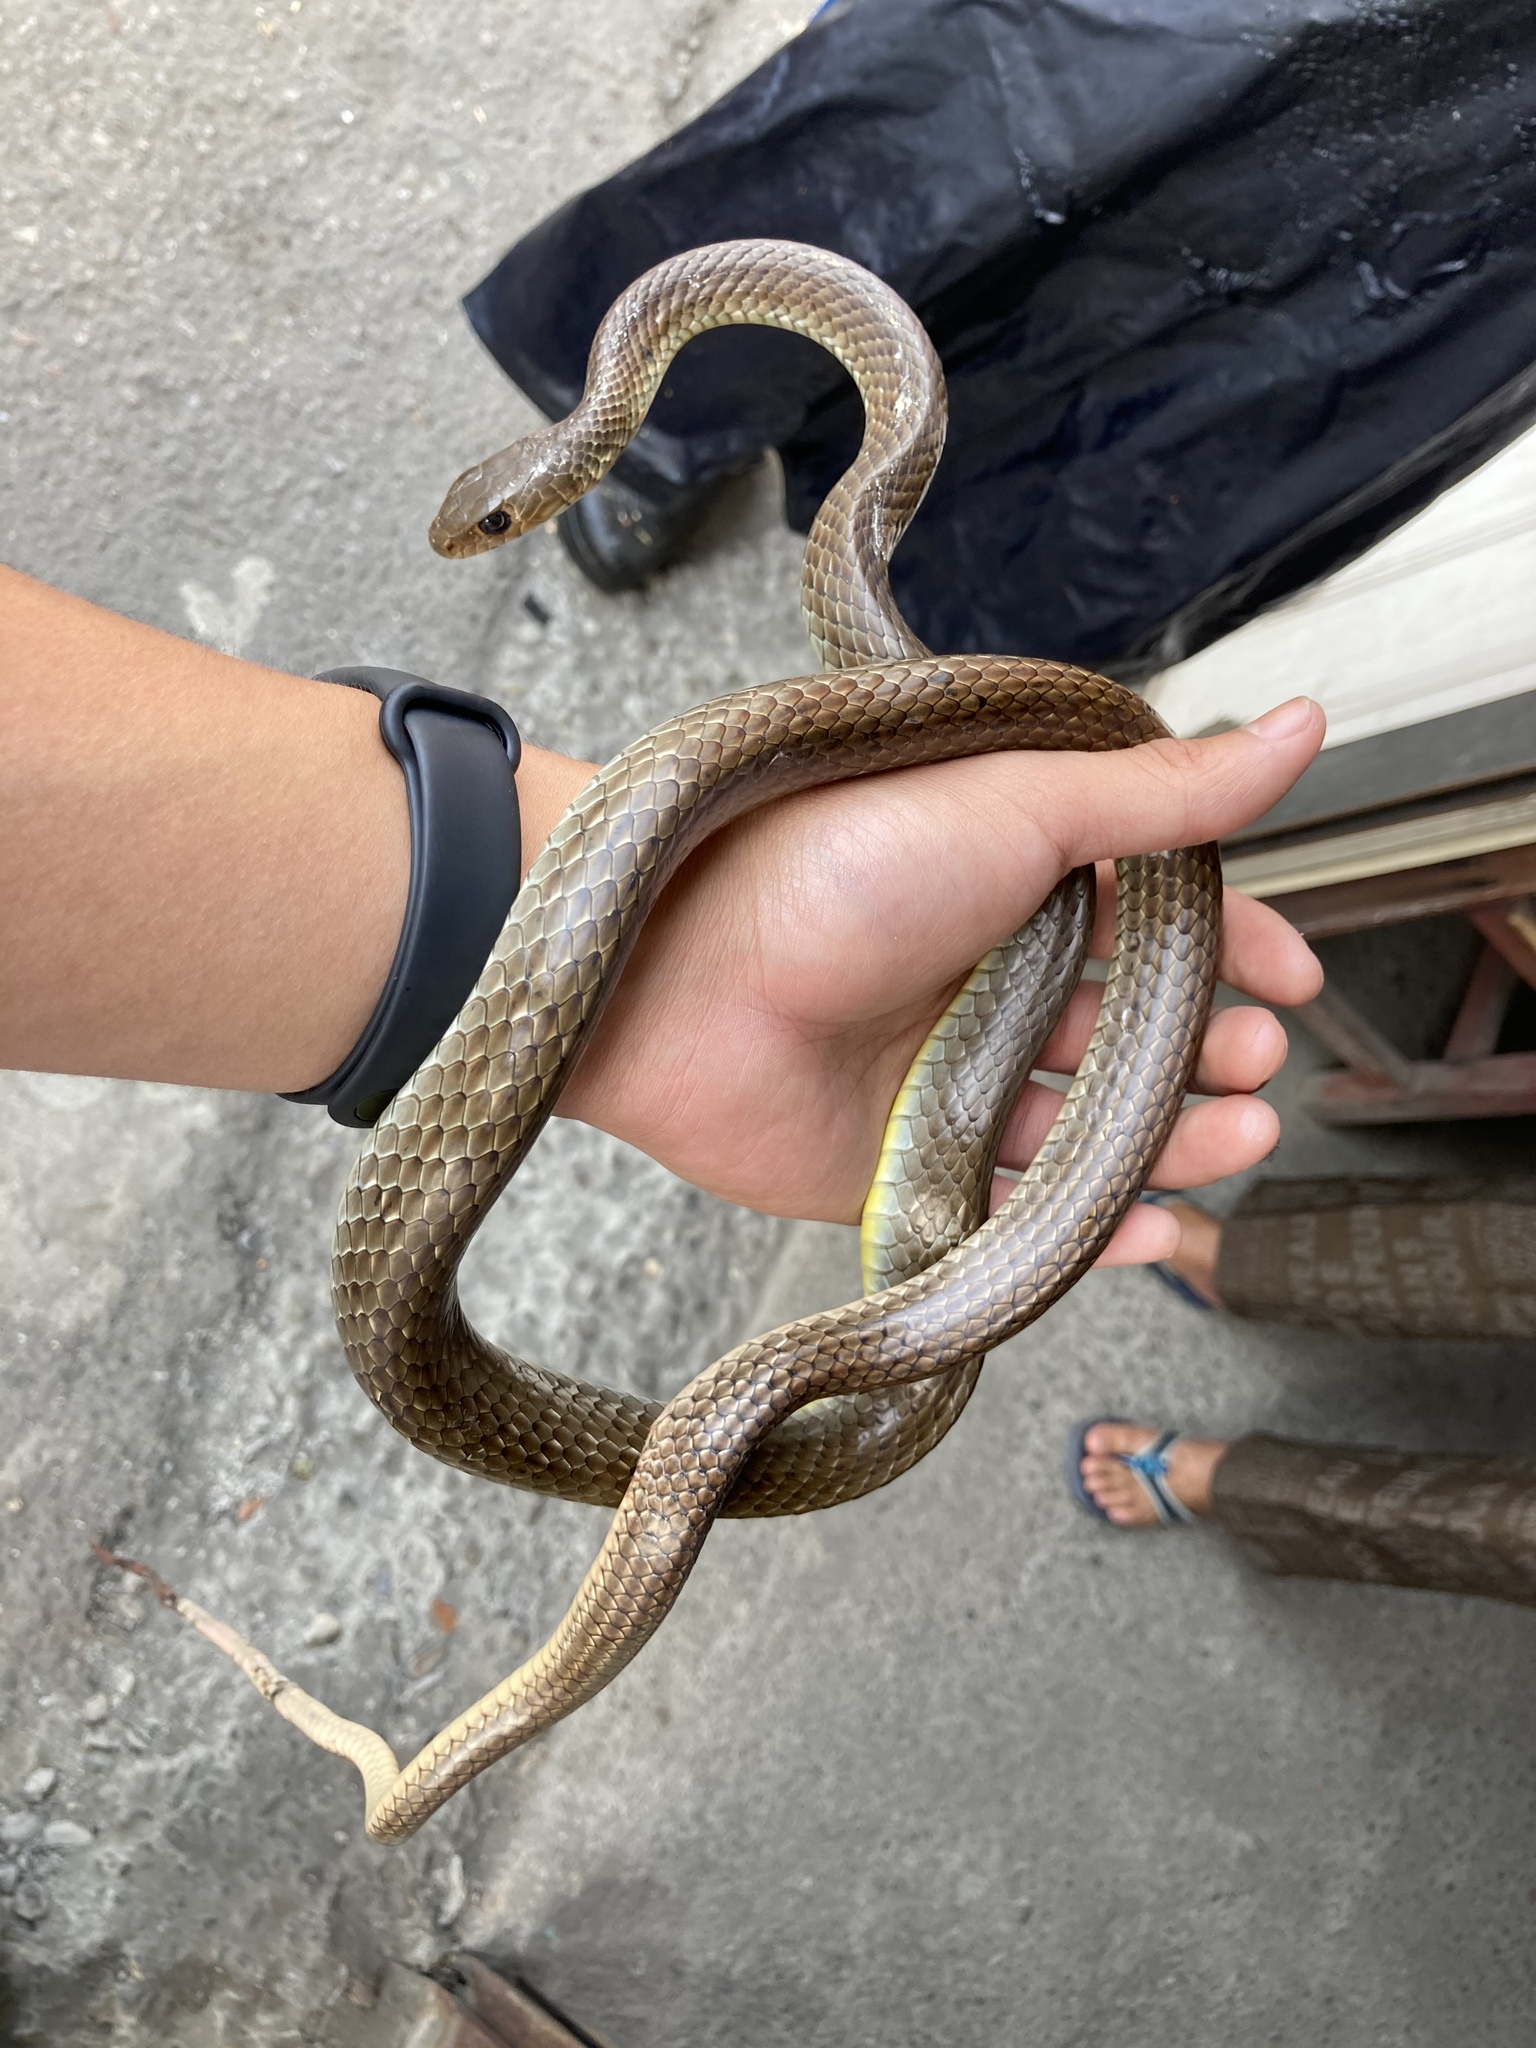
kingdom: Animalia
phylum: Chordata
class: Squamata
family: Colubridae
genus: Ptyas
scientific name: Ptyas korros
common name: Indo-chinese rat snake
